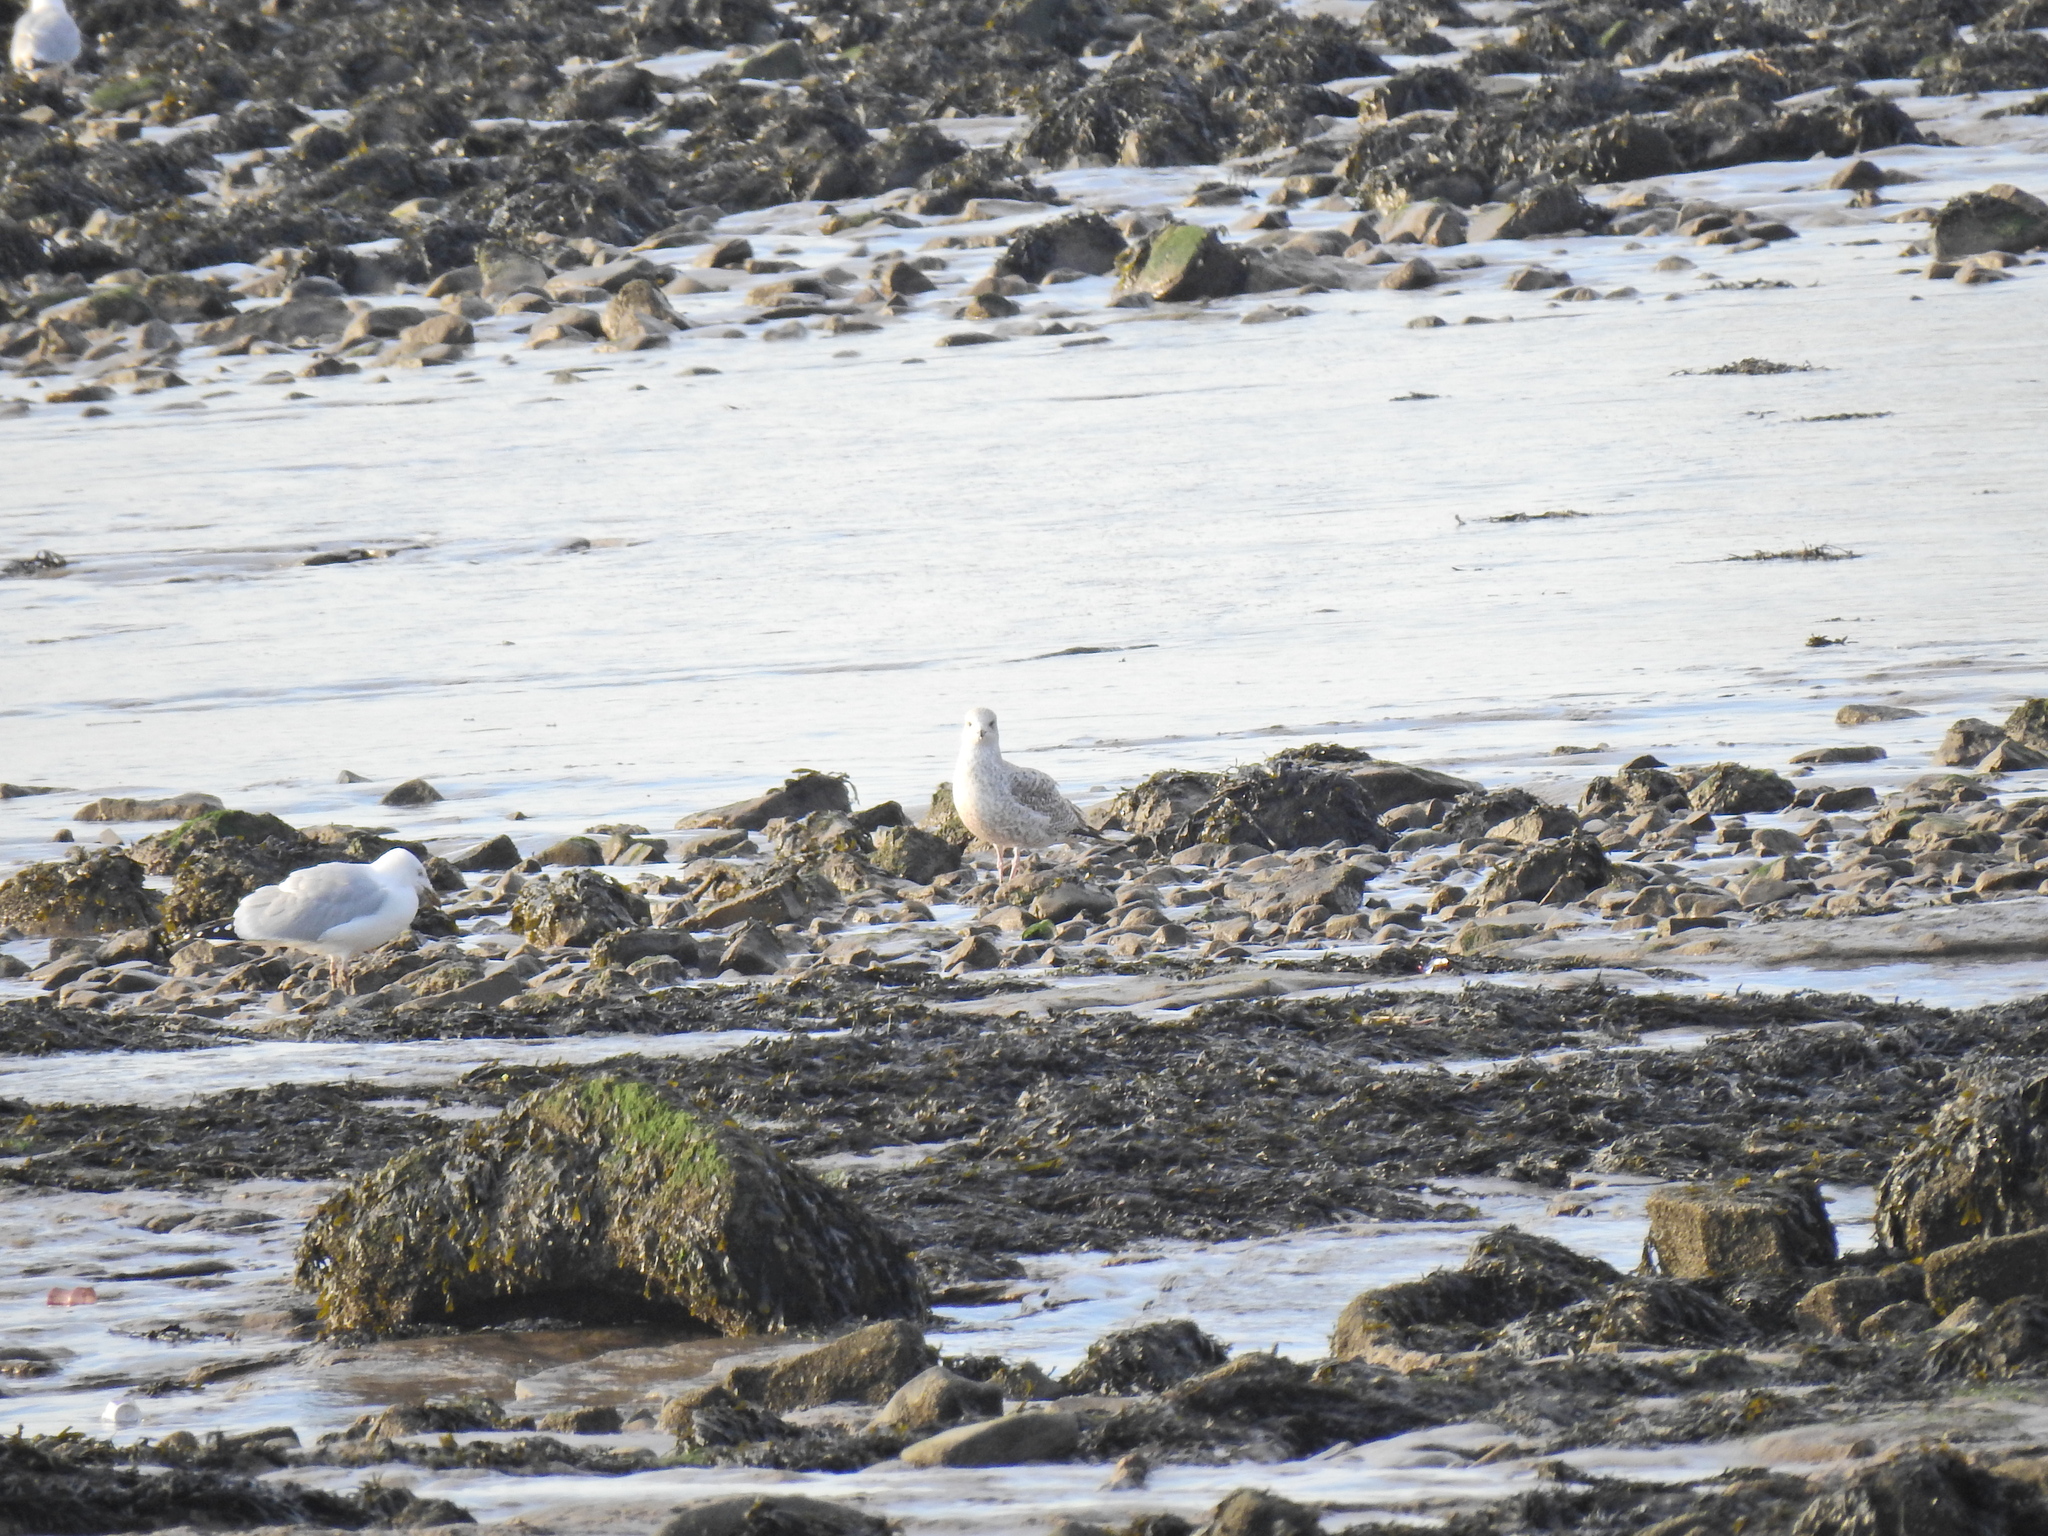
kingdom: Animalia
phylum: Chordata
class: Aves
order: Charadriiformes
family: Laridae
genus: Larus
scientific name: Larus argentatus
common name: Herring gull
